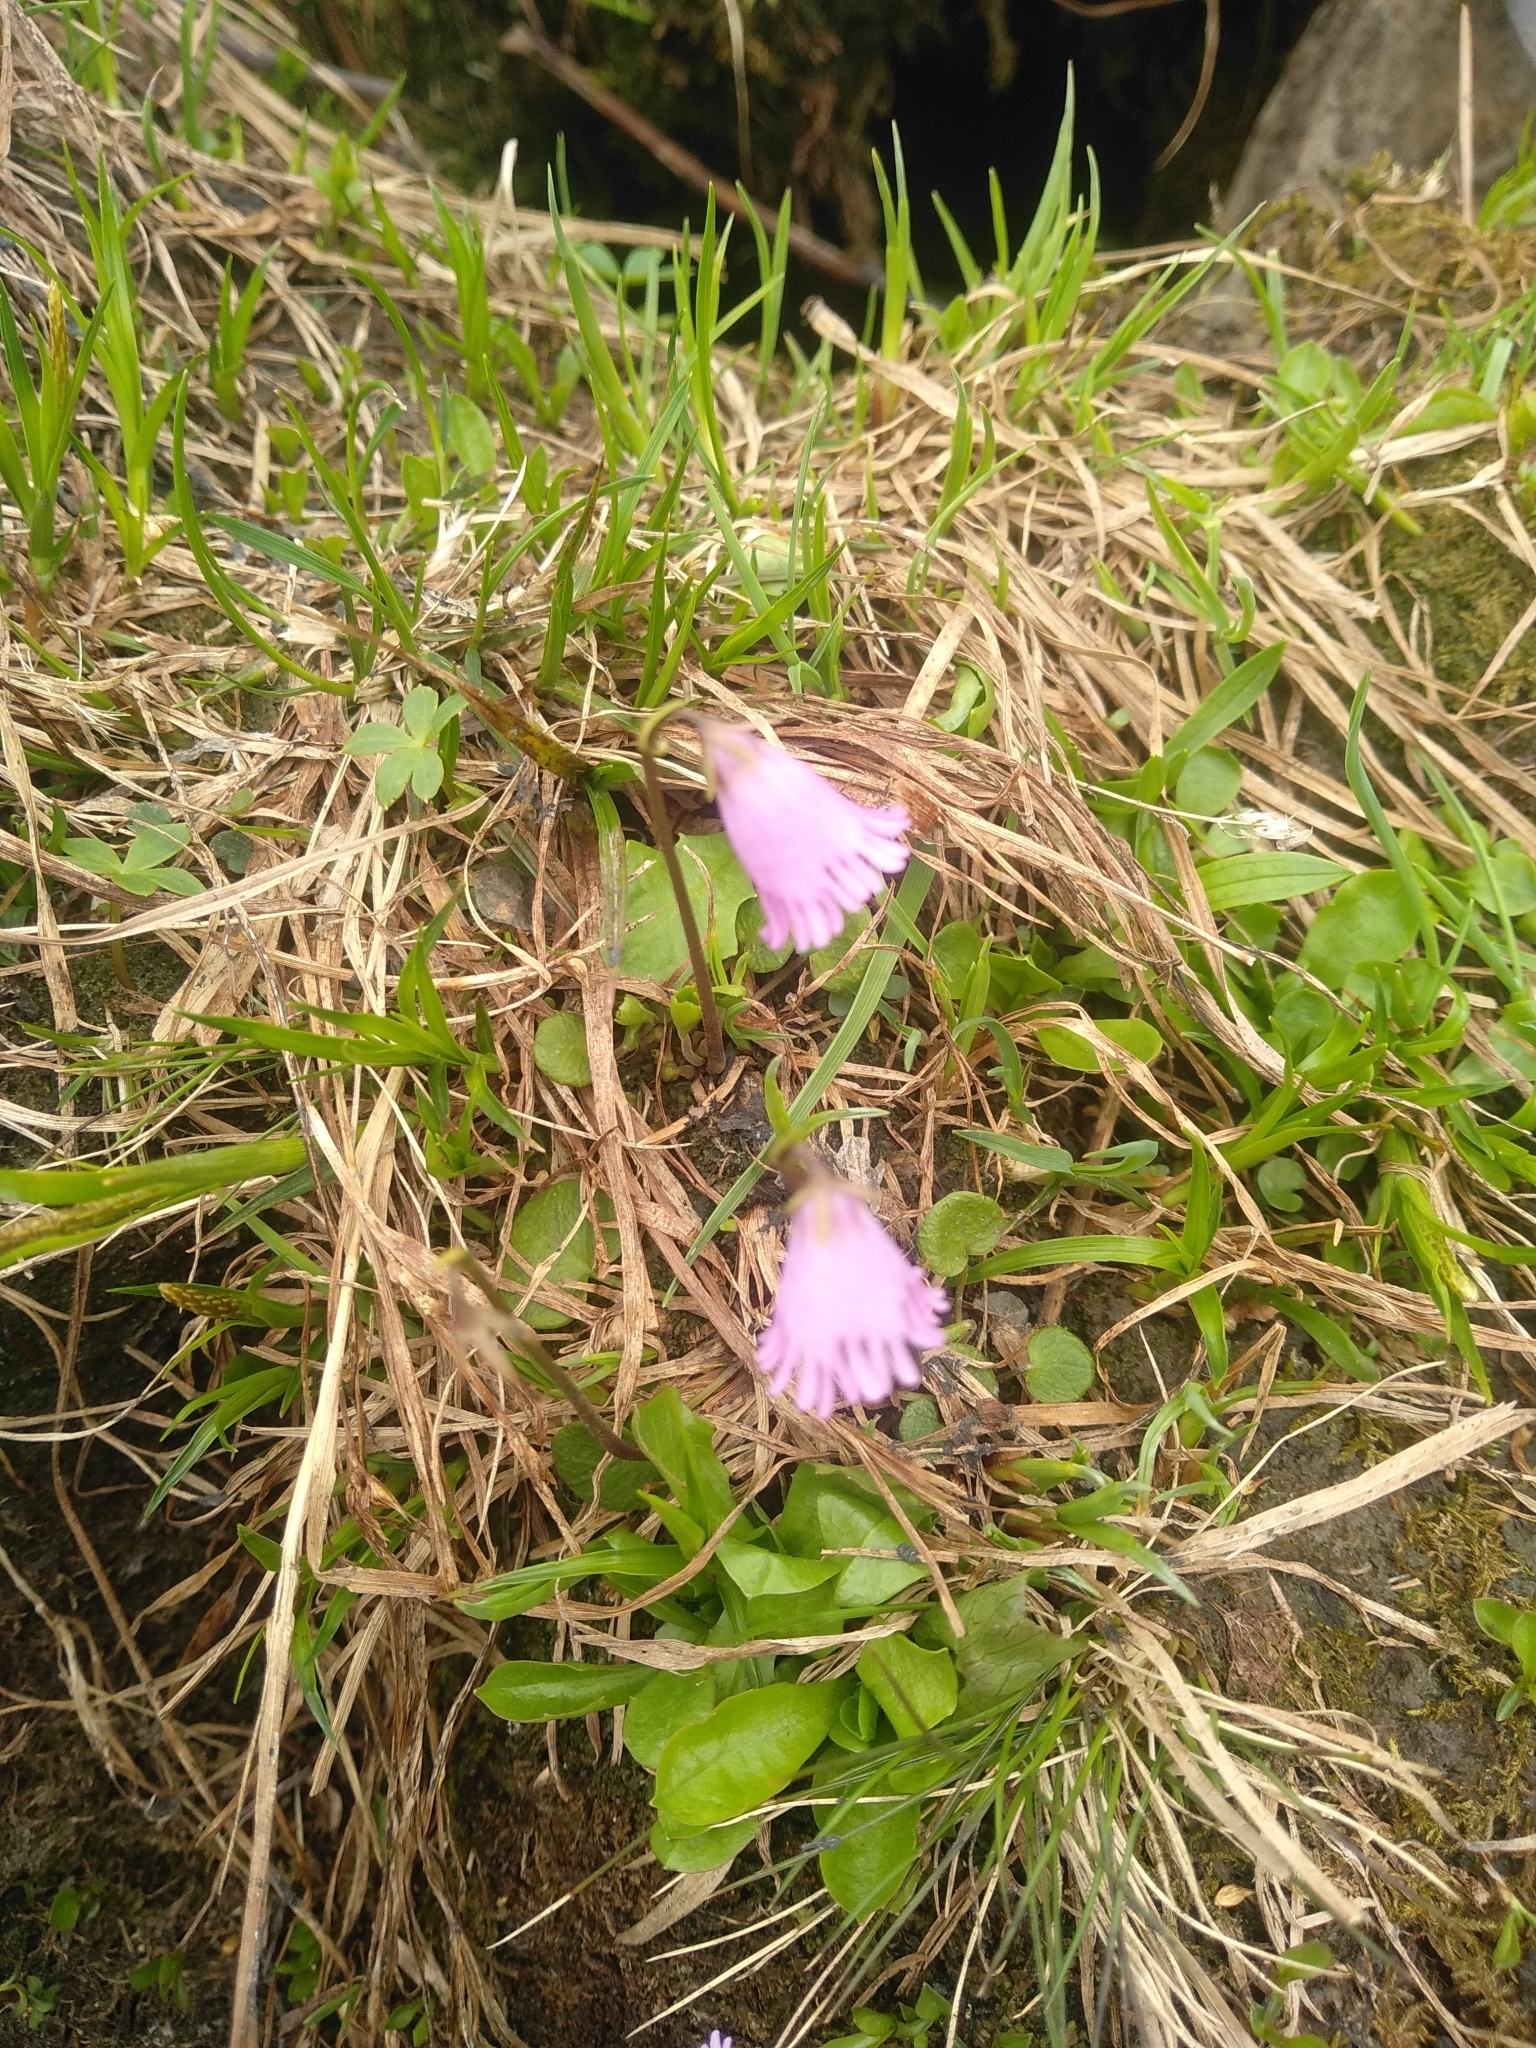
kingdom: Plantae
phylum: Tracheophyta
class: Magnoliopsida
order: Ericales
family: Primulaceae
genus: Soldanella
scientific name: Soldanella pusilla
